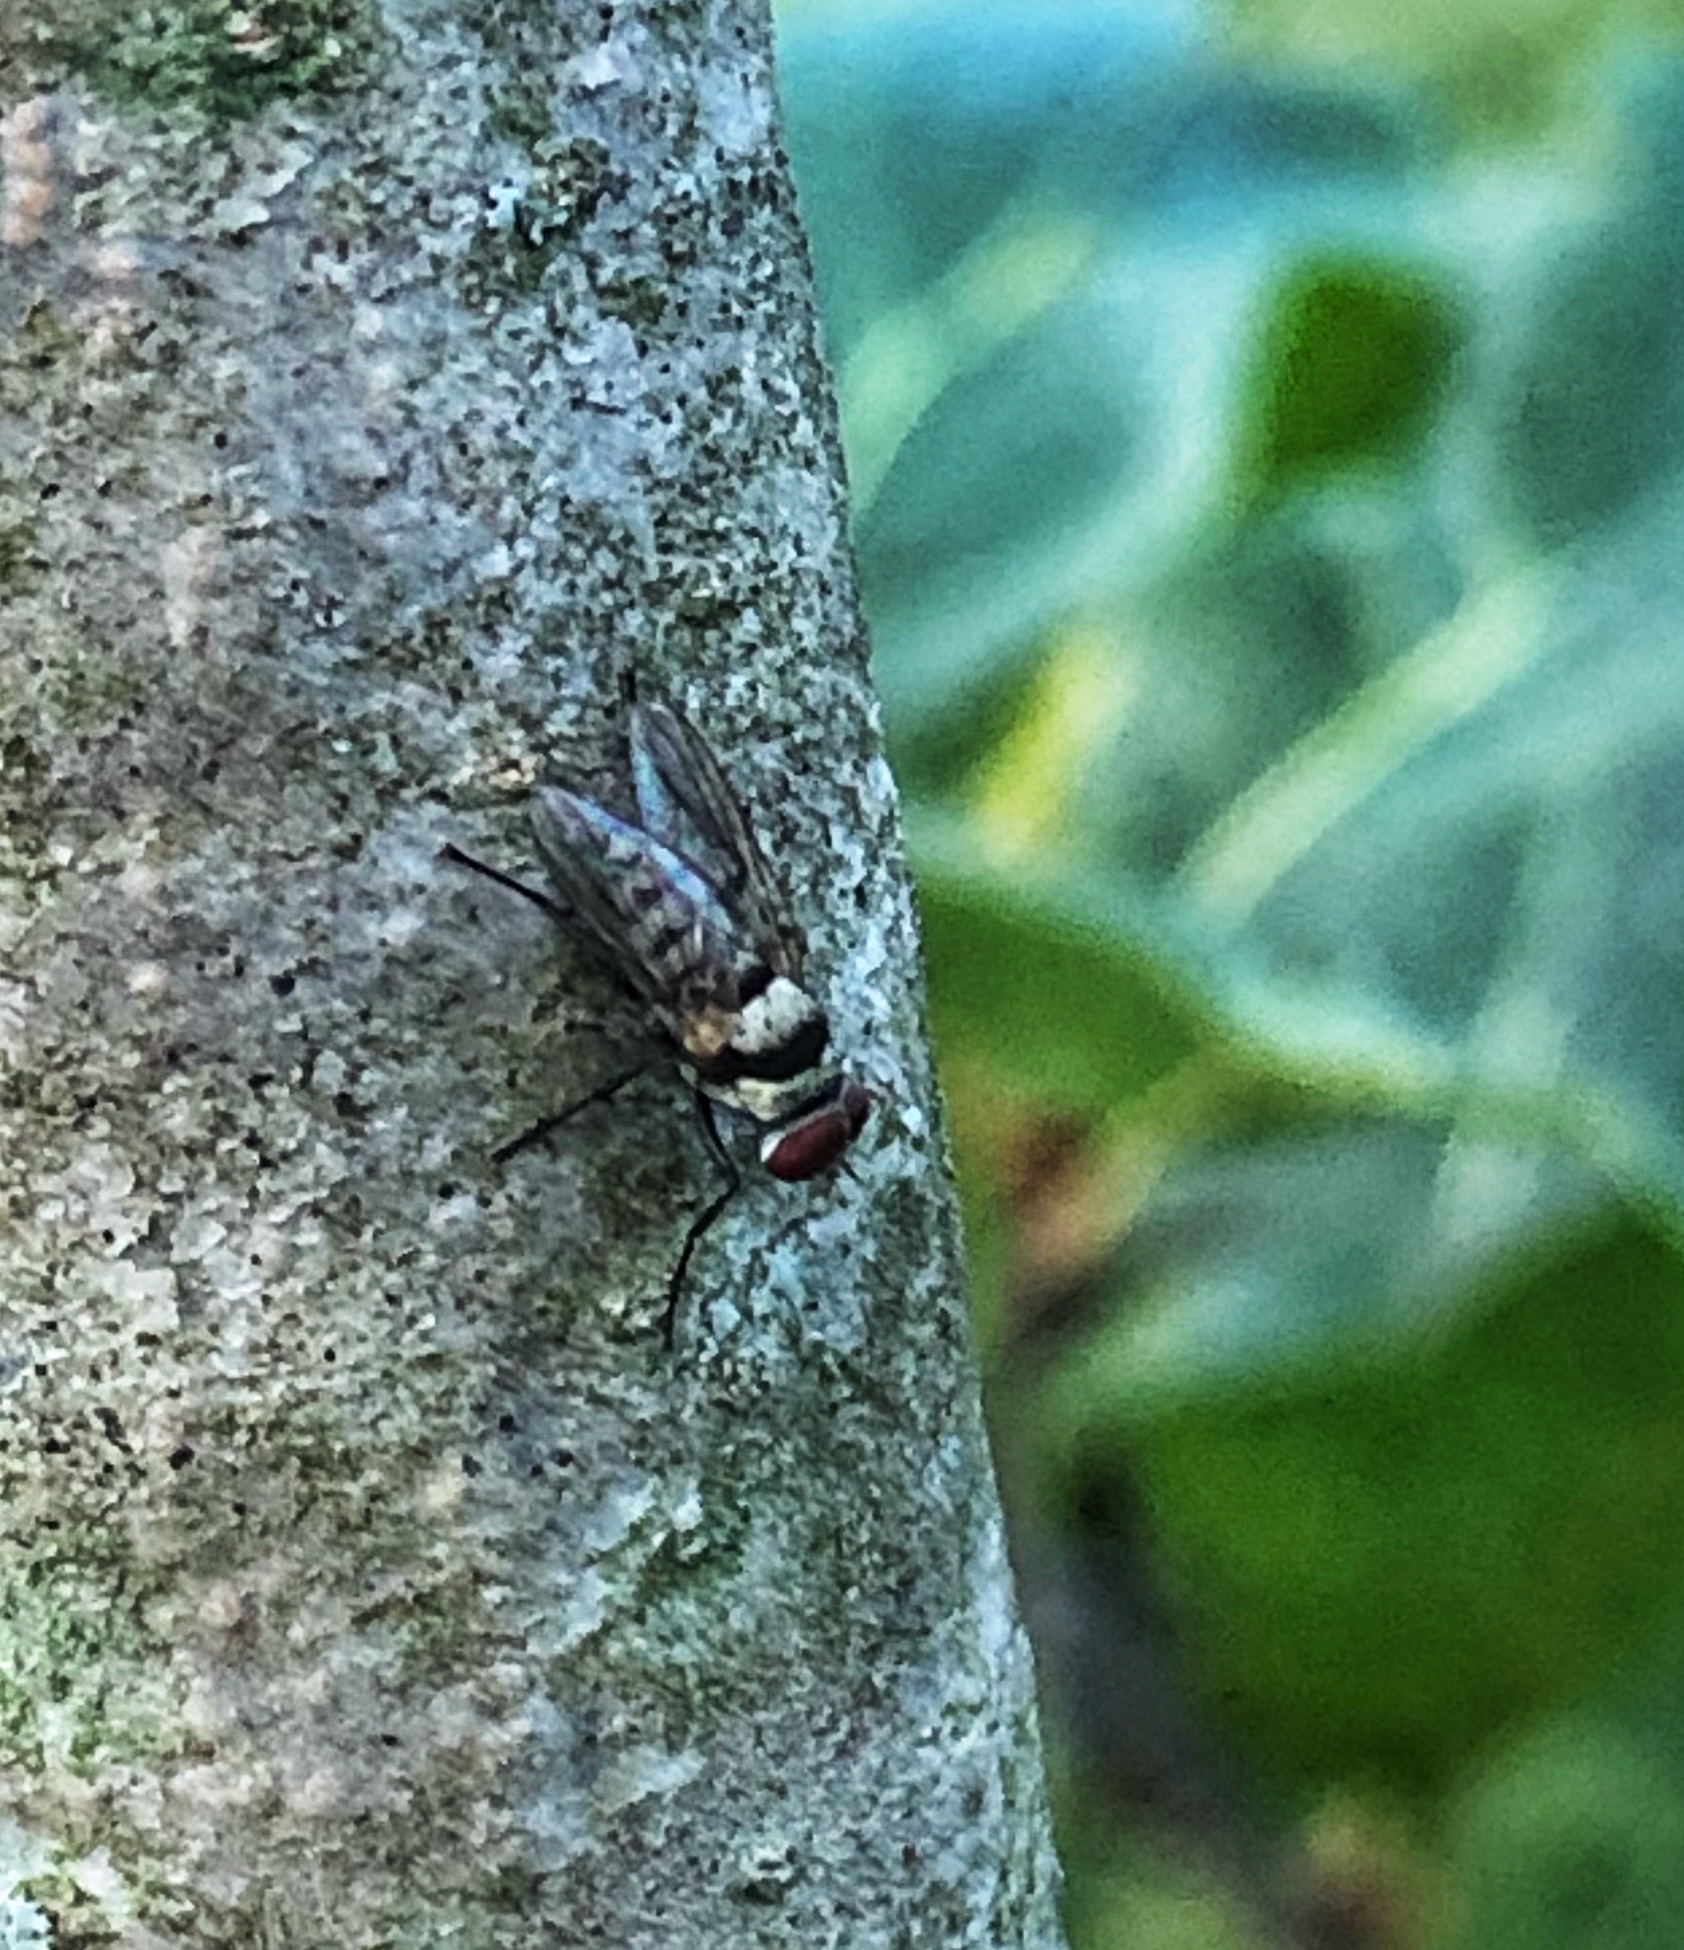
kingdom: Animalia
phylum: Arthropoda
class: Insecta
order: Diptera
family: Anthomyiidae
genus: Anthomyia
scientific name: Anthomyia illocata
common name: Fly
